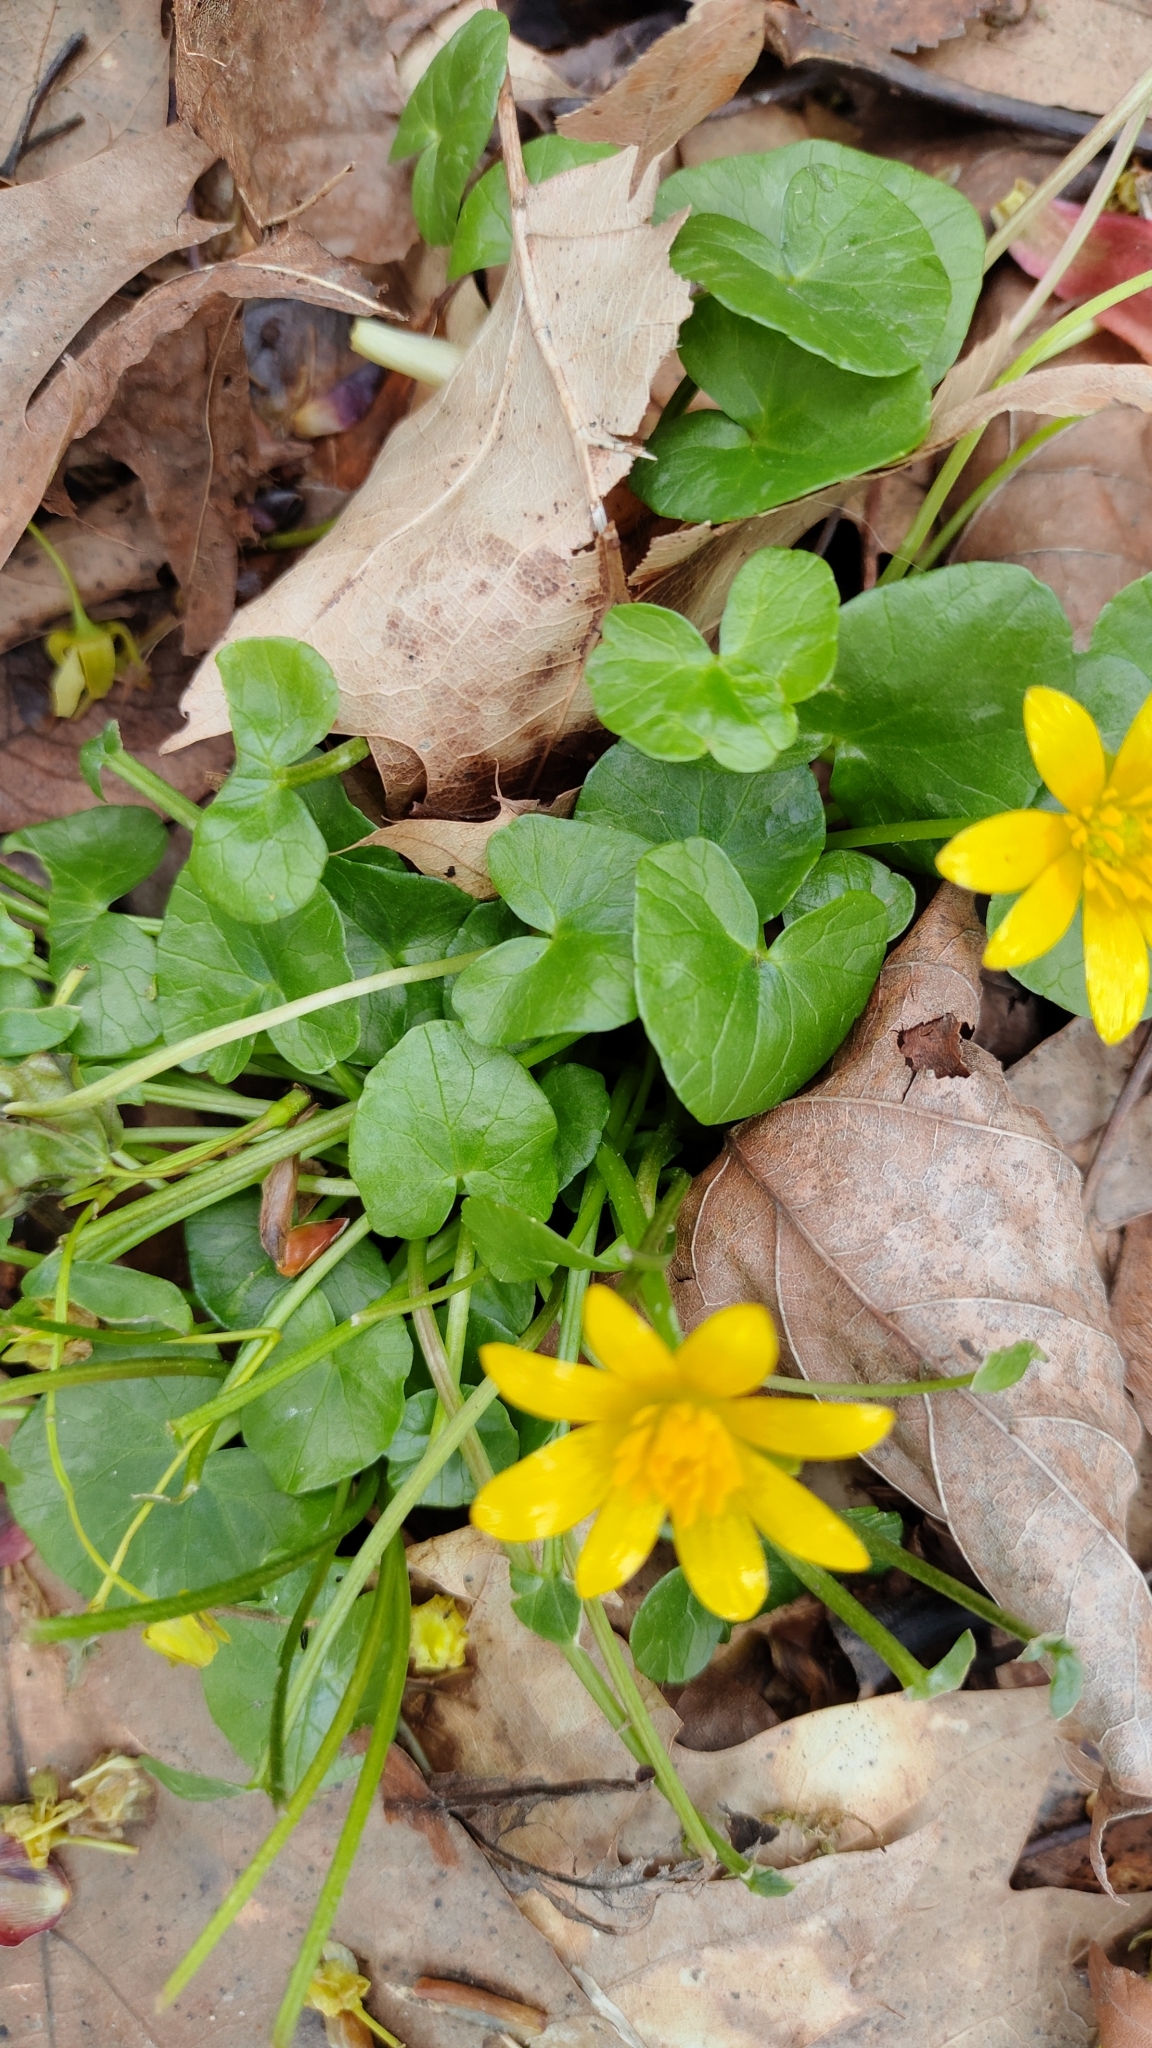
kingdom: Plantae
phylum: Tracheophyta
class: Magnoliopsida
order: Ranunculales
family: Ranunculaceae
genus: Ficaria
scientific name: Ficaria verna
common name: Lesser celandine
